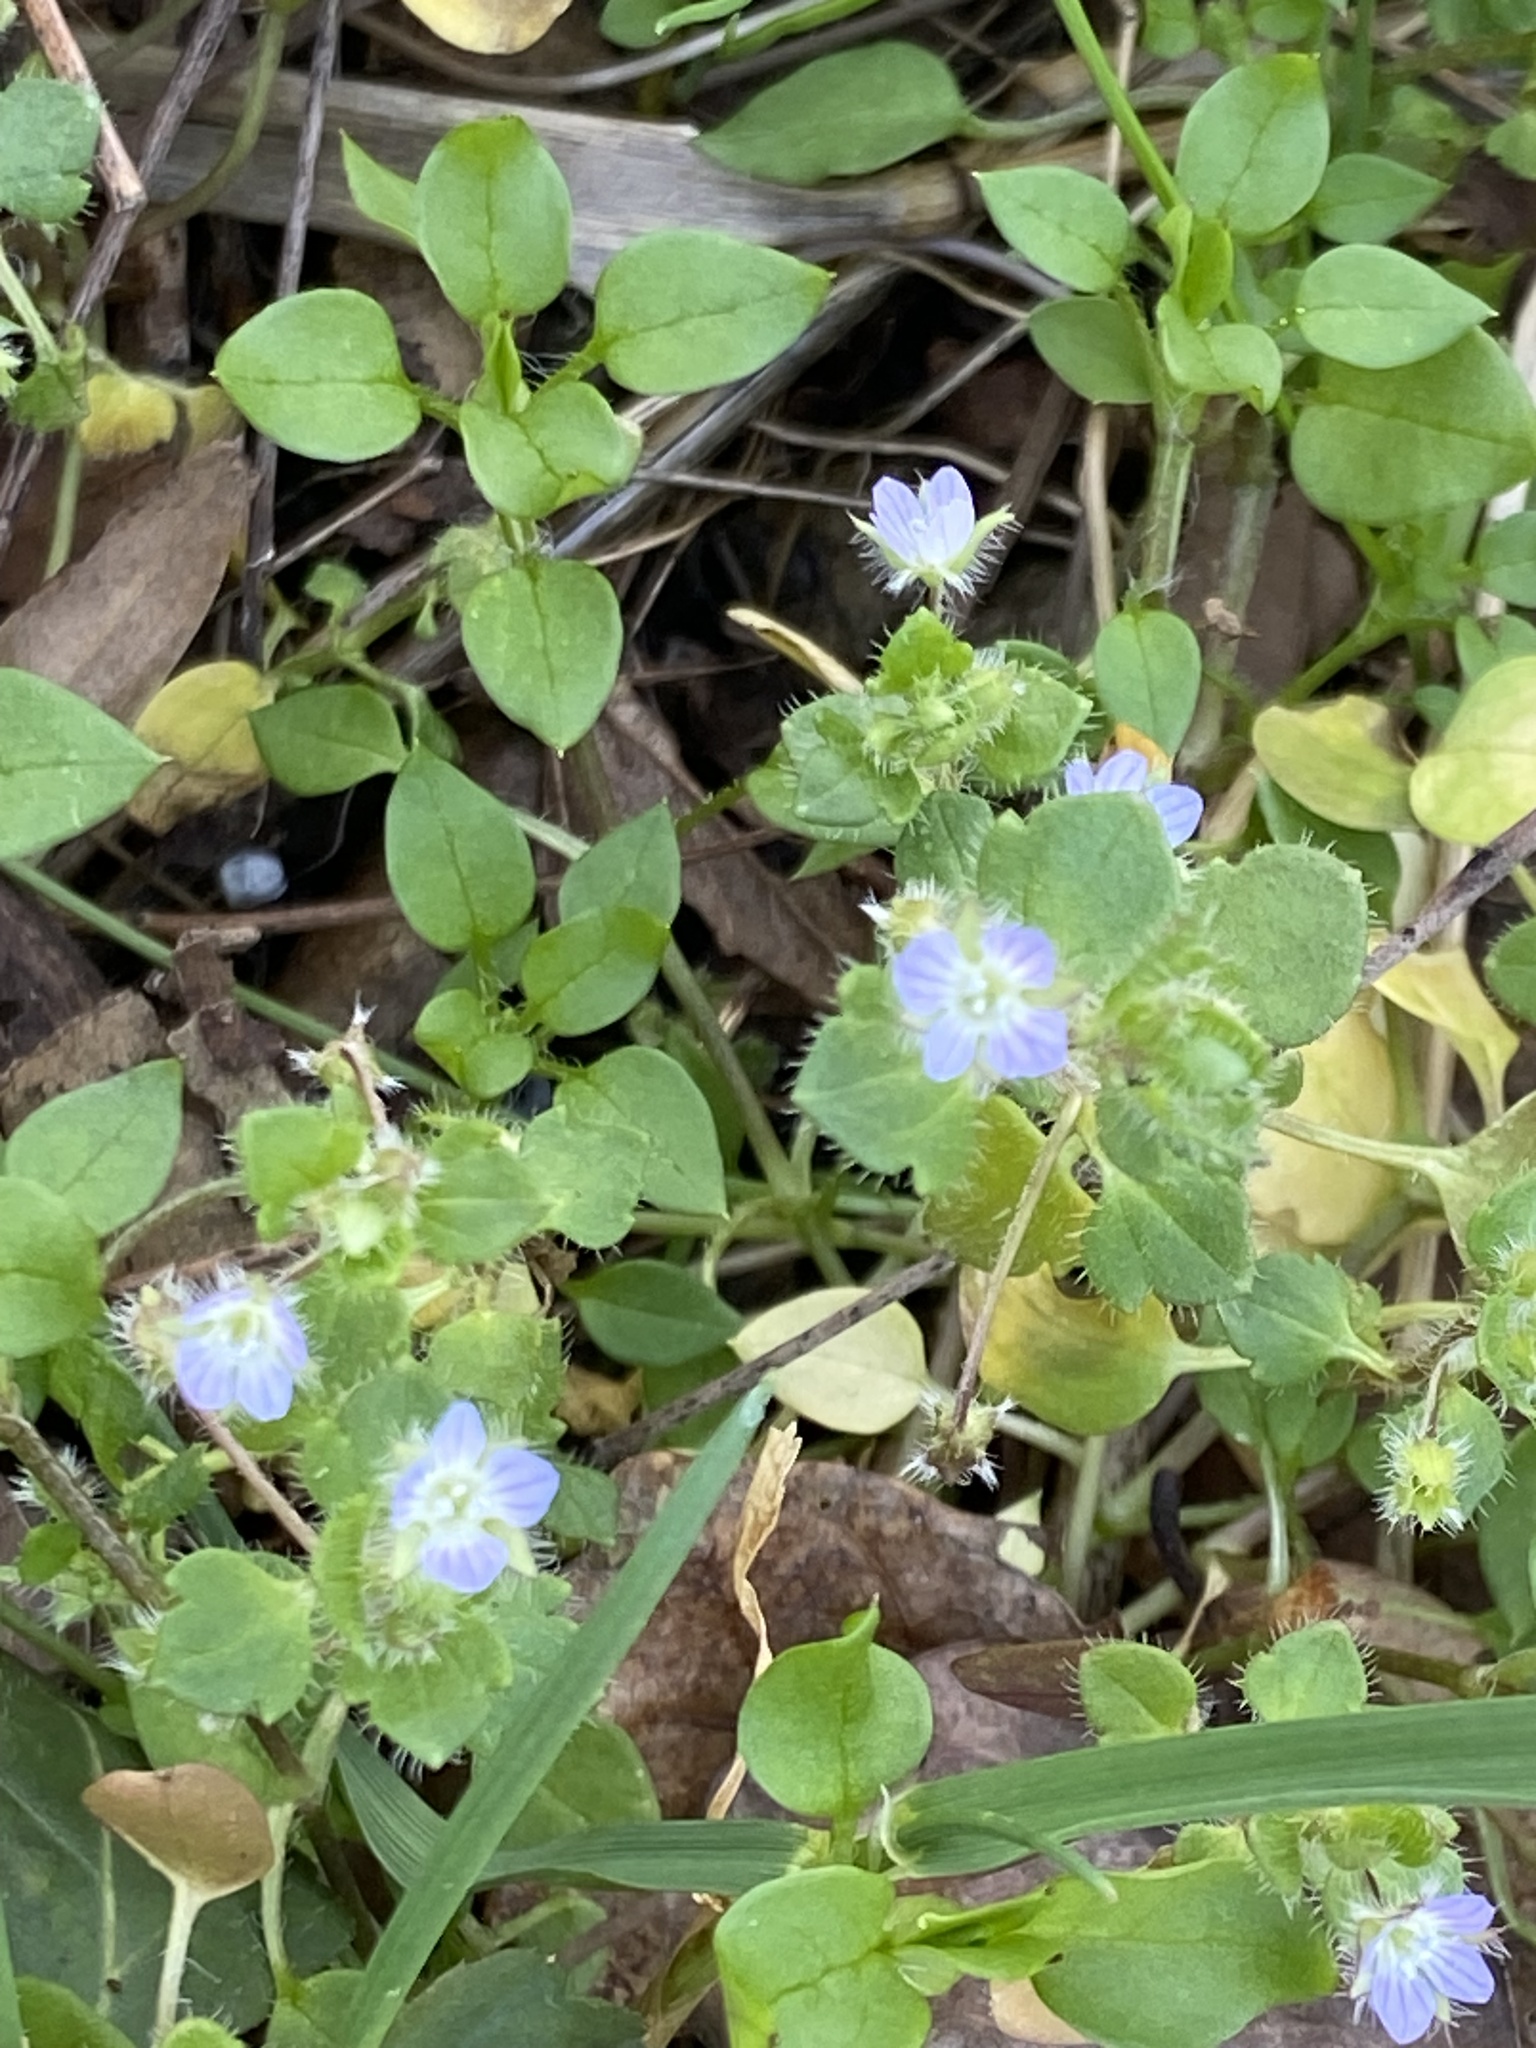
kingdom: Plantae
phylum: Tracheophyta
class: Magnoliopsida
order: Lamiales
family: Plantaginaceae
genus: Veronica
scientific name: Veronica hederifolia
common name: Ivy-leaved speedwell
